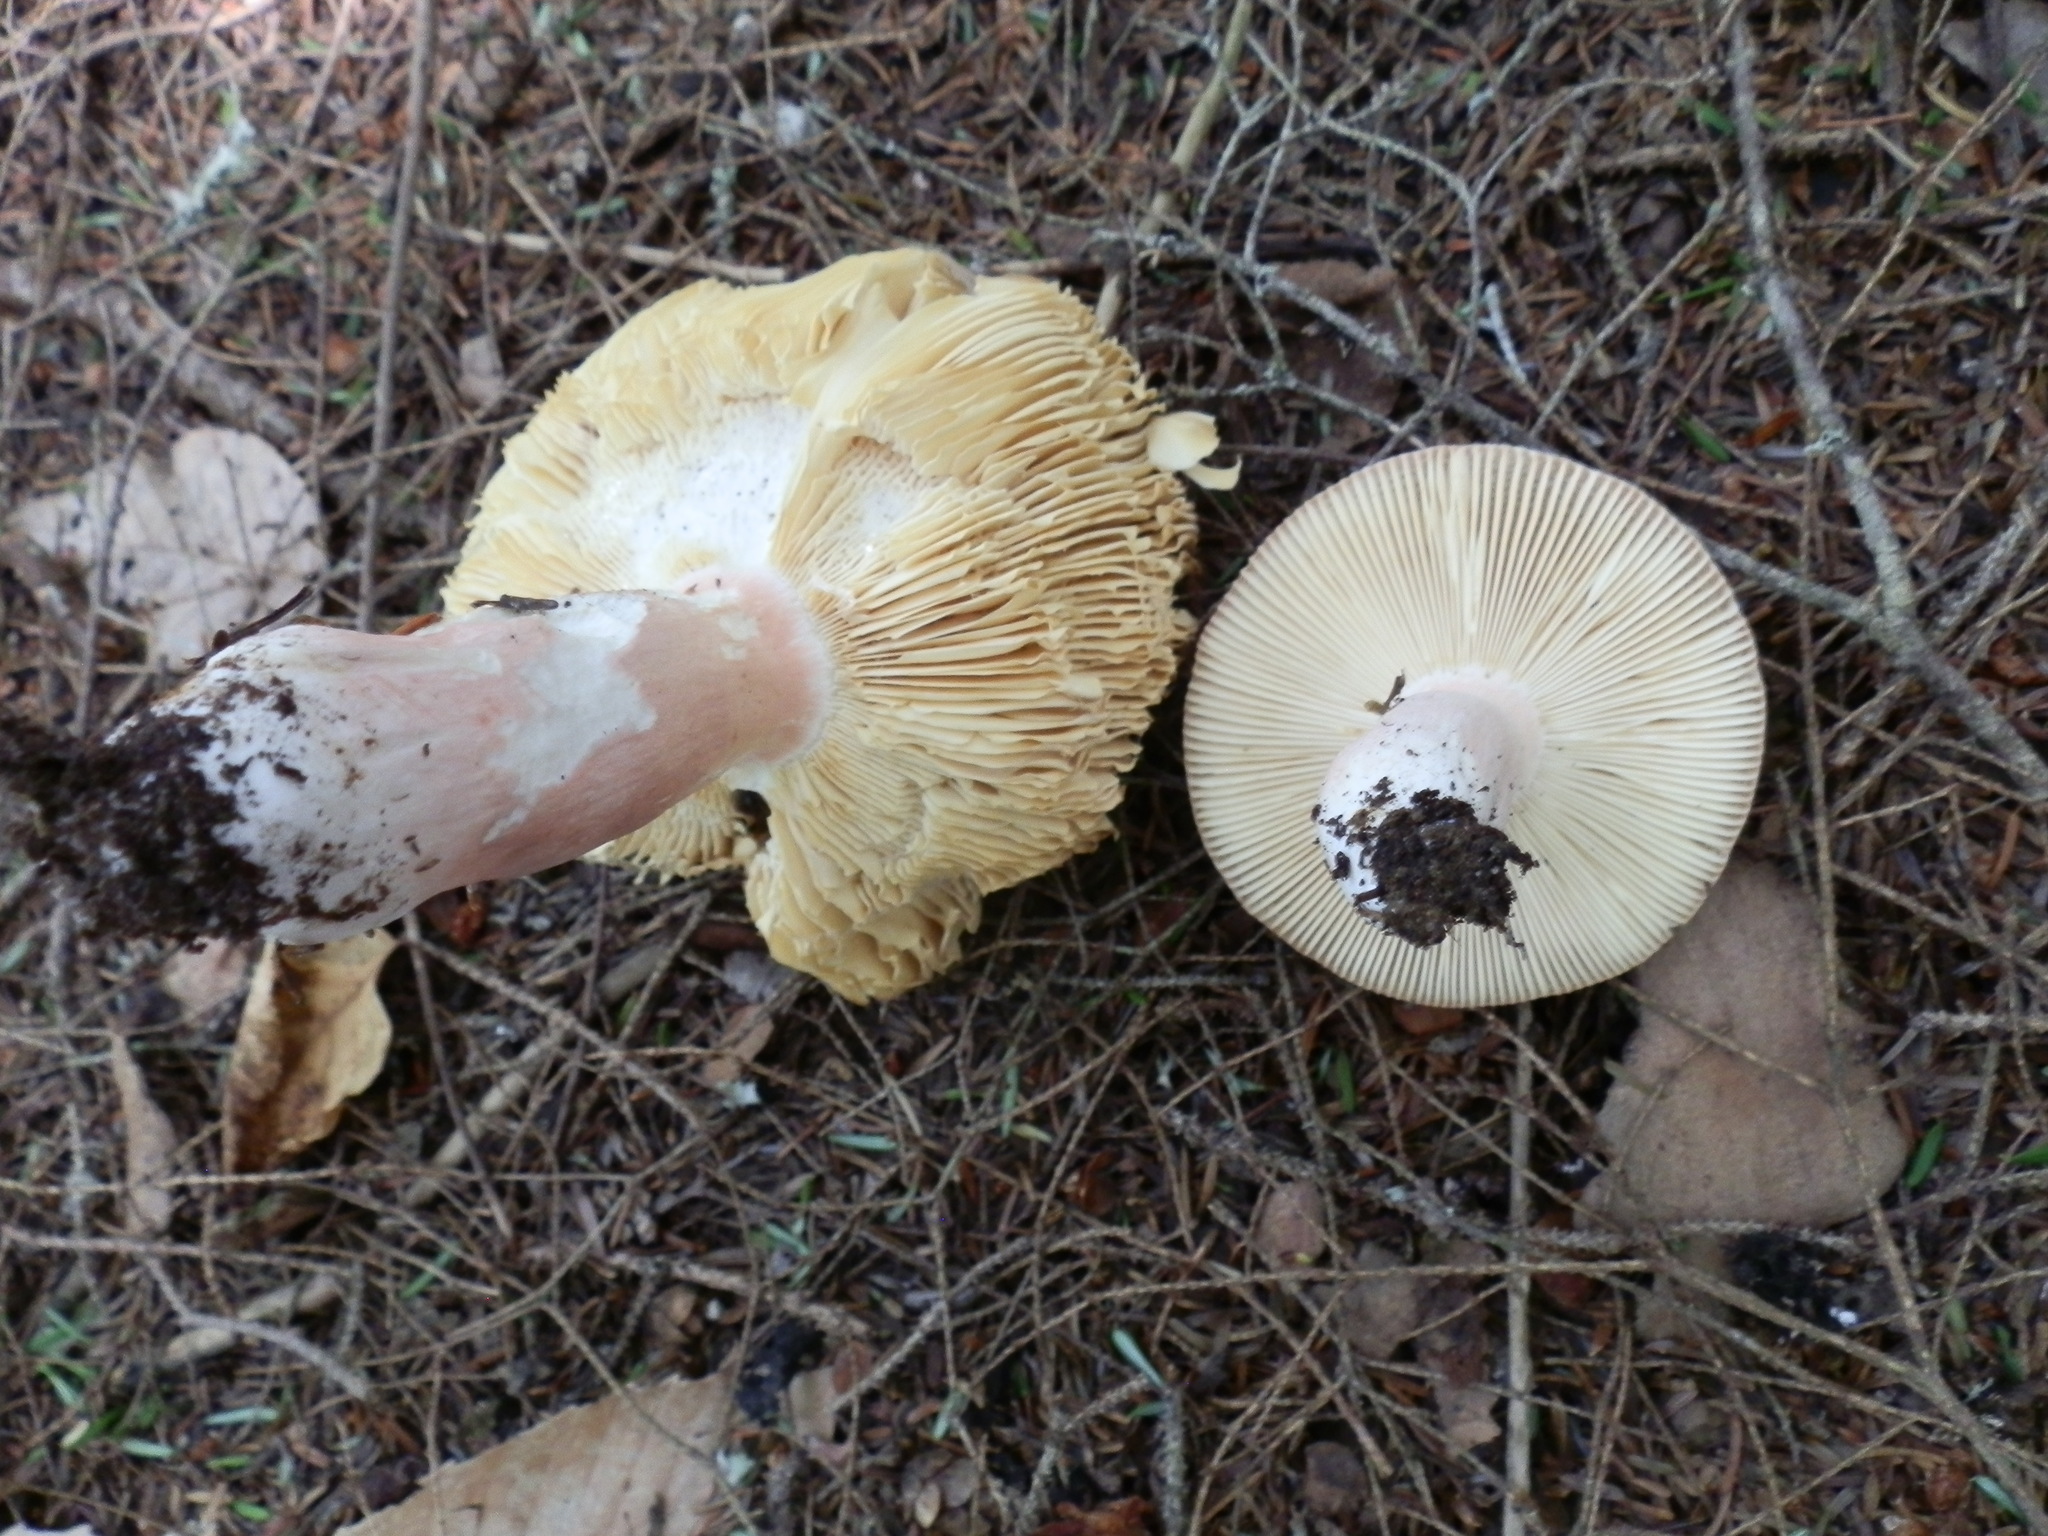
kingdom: Fungi
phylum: Basidiomycota
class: Agaricomycetes
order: Russulales
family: Russulaceae
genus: Russula
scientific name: Russula sanguinaria
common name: Bloody brittlegill
